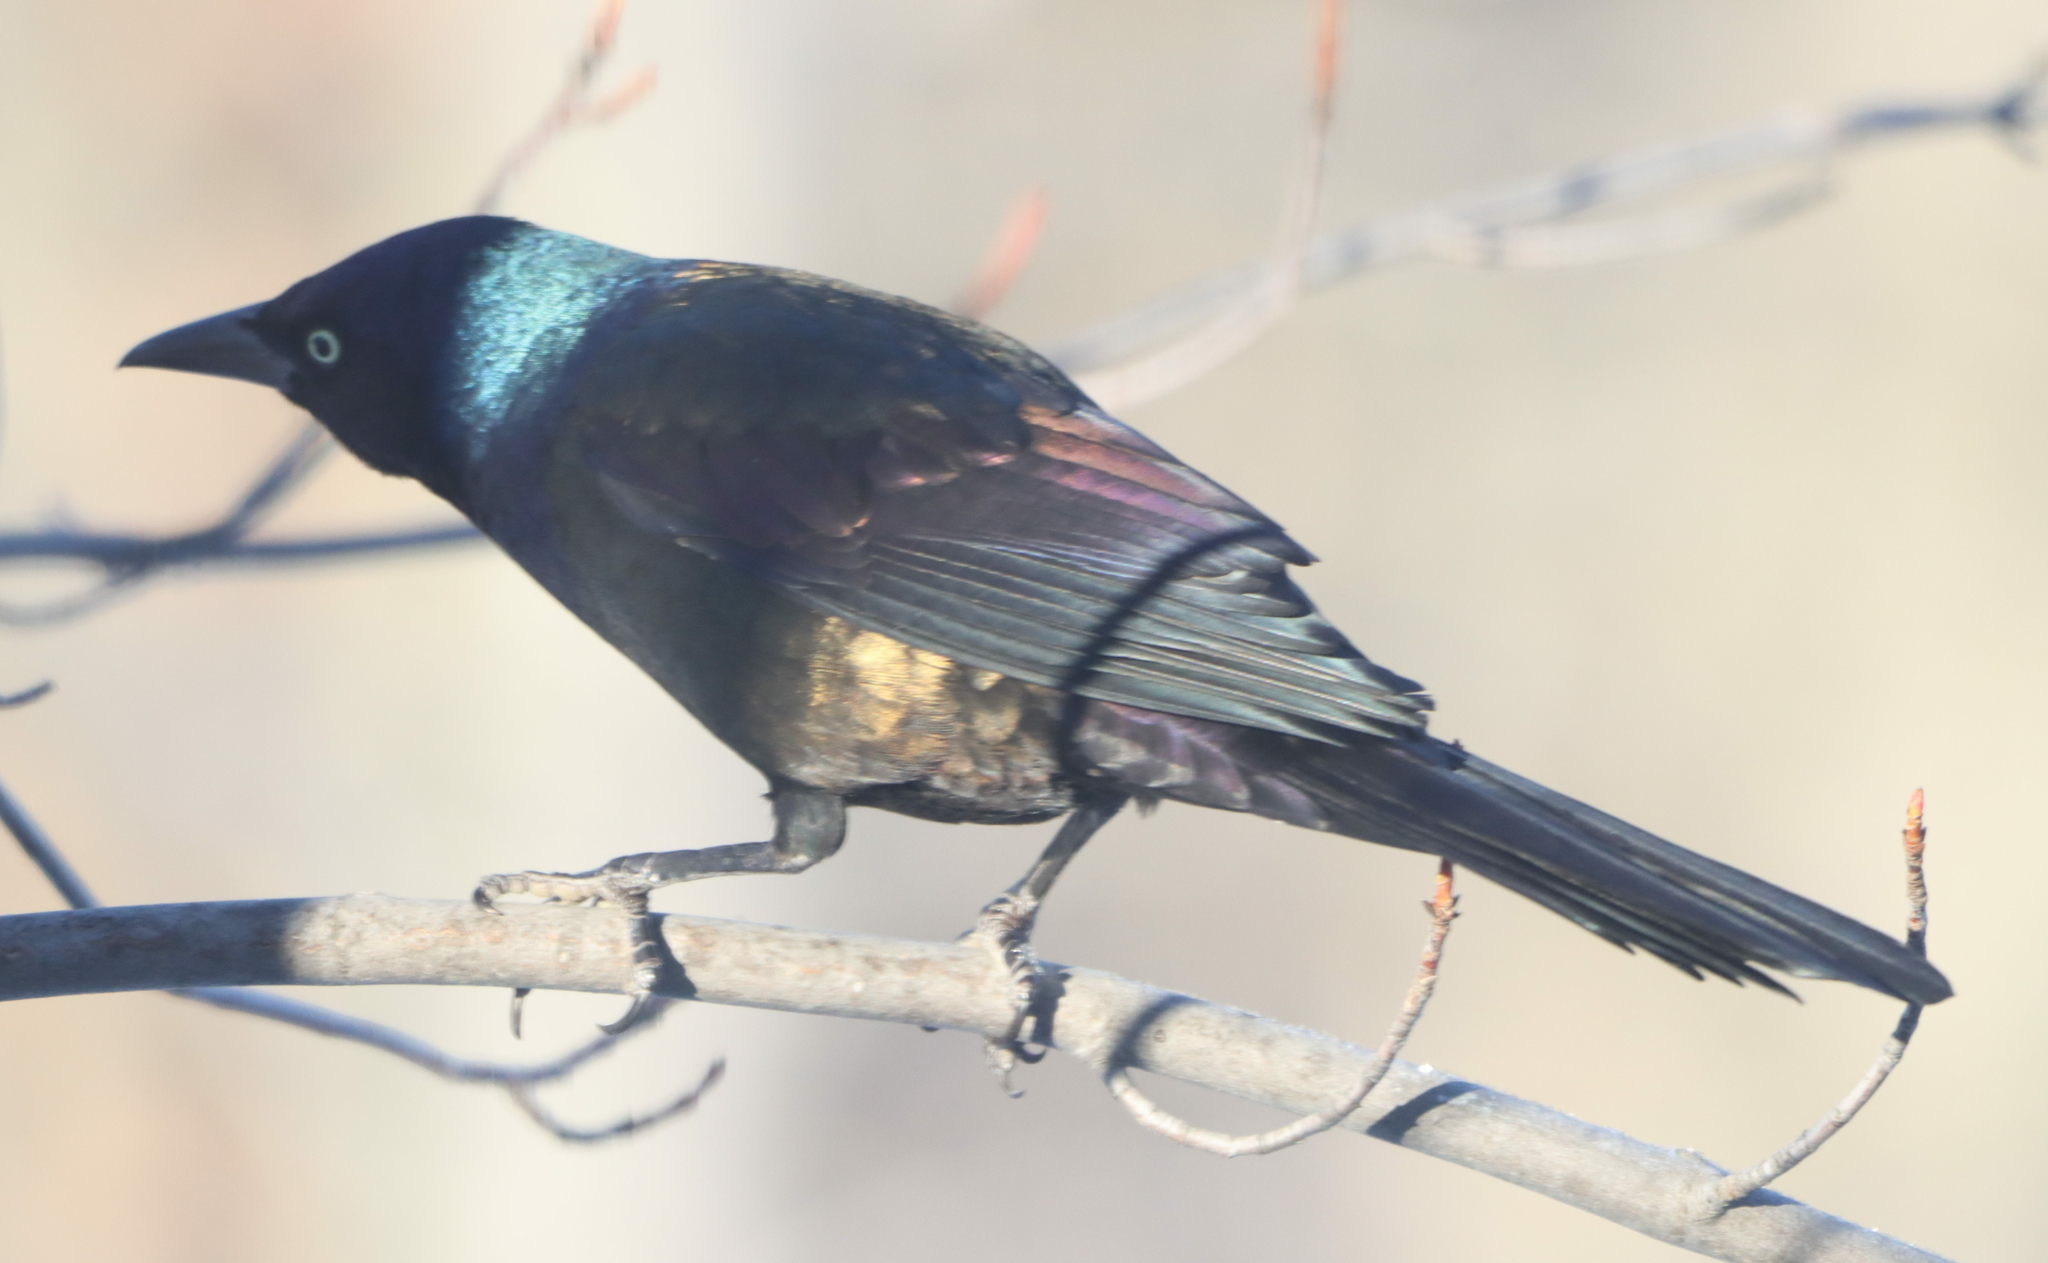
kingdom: Animalia
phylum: Chordata
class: Aves
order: Passeriformes
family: Icteridae
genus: Quiscalus
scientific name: Quiscalus quiscula
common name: Common grackle
